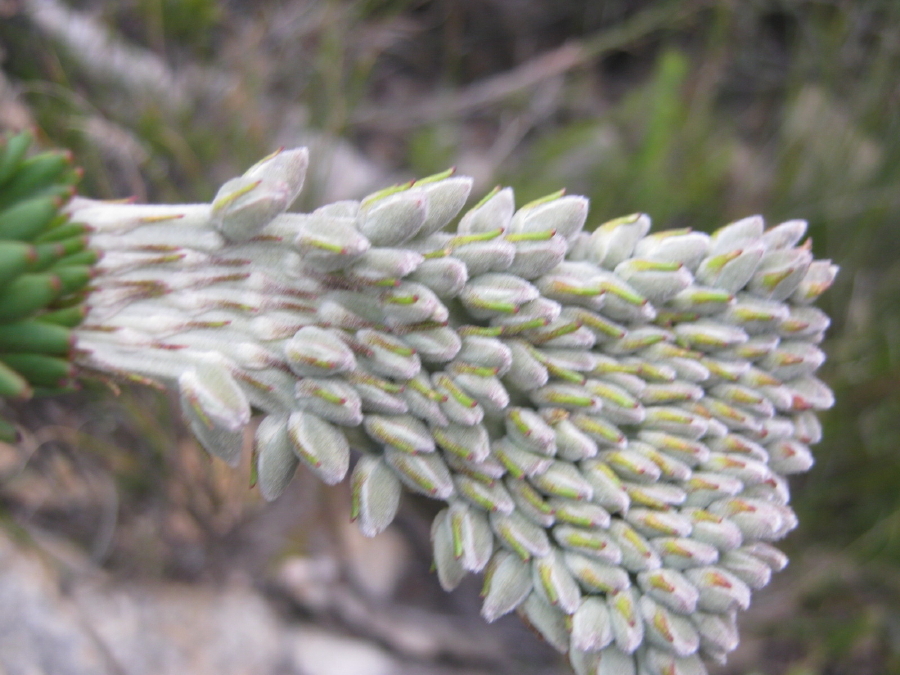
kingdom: Plantae
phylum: Tracheophyta
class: Magnoliopsida
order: Proteales
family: Proteaceae
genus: Paranomus
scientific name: Paranomus dregei
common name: Scented sceptre
